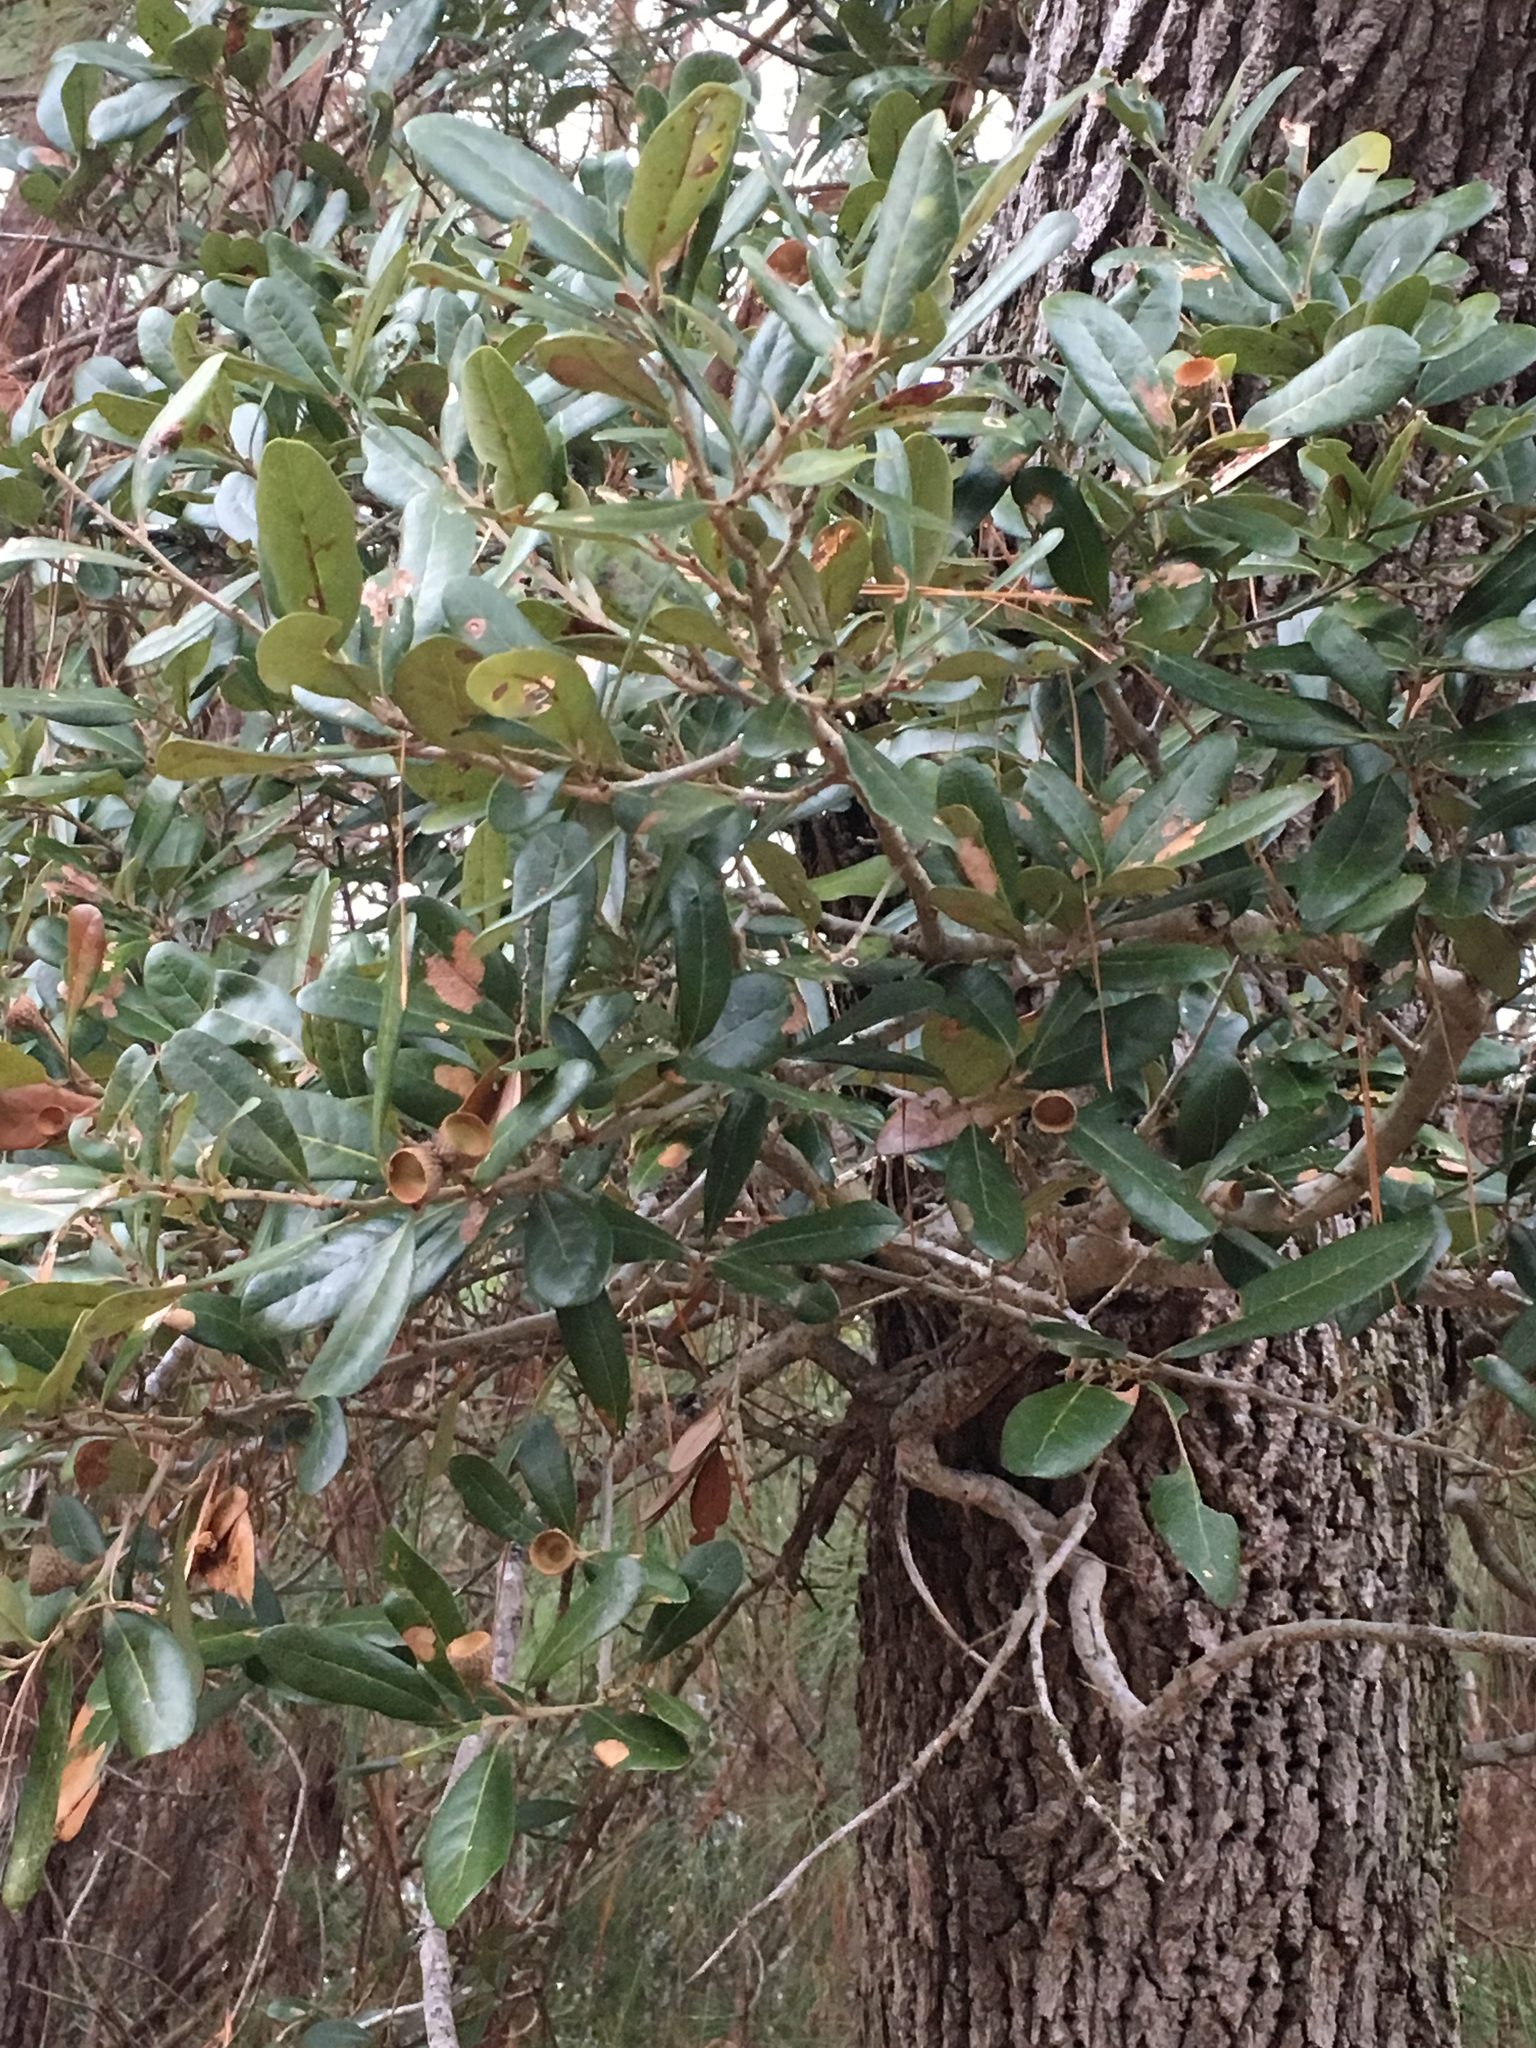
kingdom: Plantae
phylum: Tracheophyta
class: Magnoliopsida
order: Fagales
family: Fagaceae
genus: Quercus
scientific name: Quercus virginiana
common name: Southern live oak
